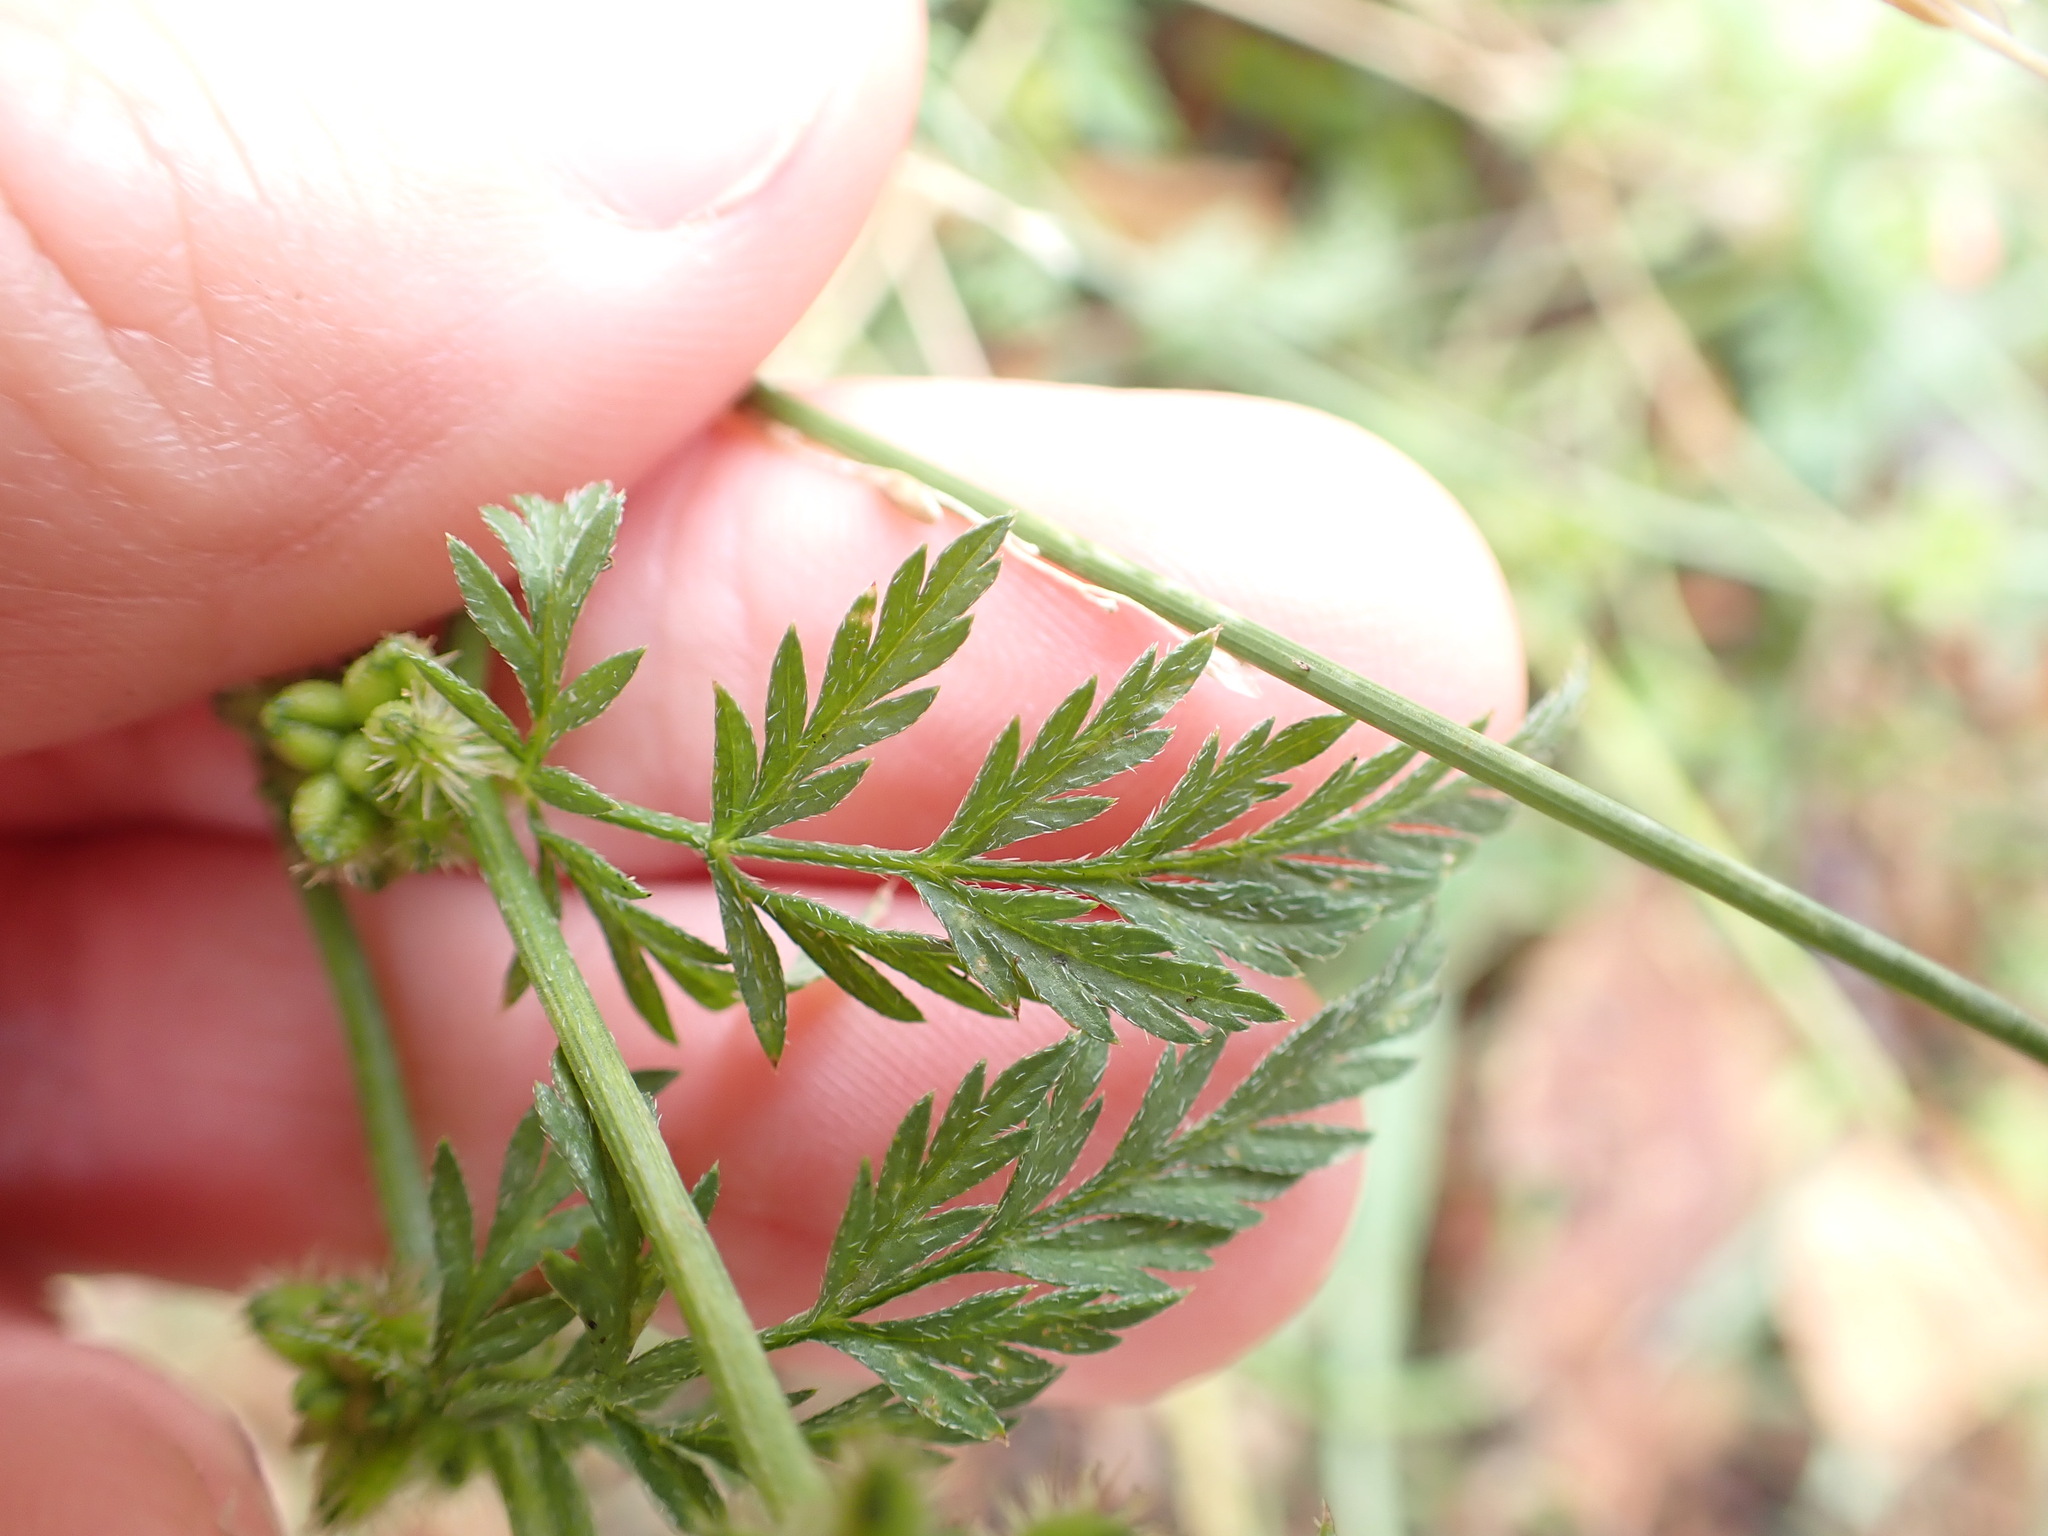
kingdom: Plantae
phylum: Tracheophyta
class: Magnoliopsida
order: Apiales
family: Apiaceae
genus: Torilis
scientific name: Torilis nodosa
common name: Knotted hedge-parsley
